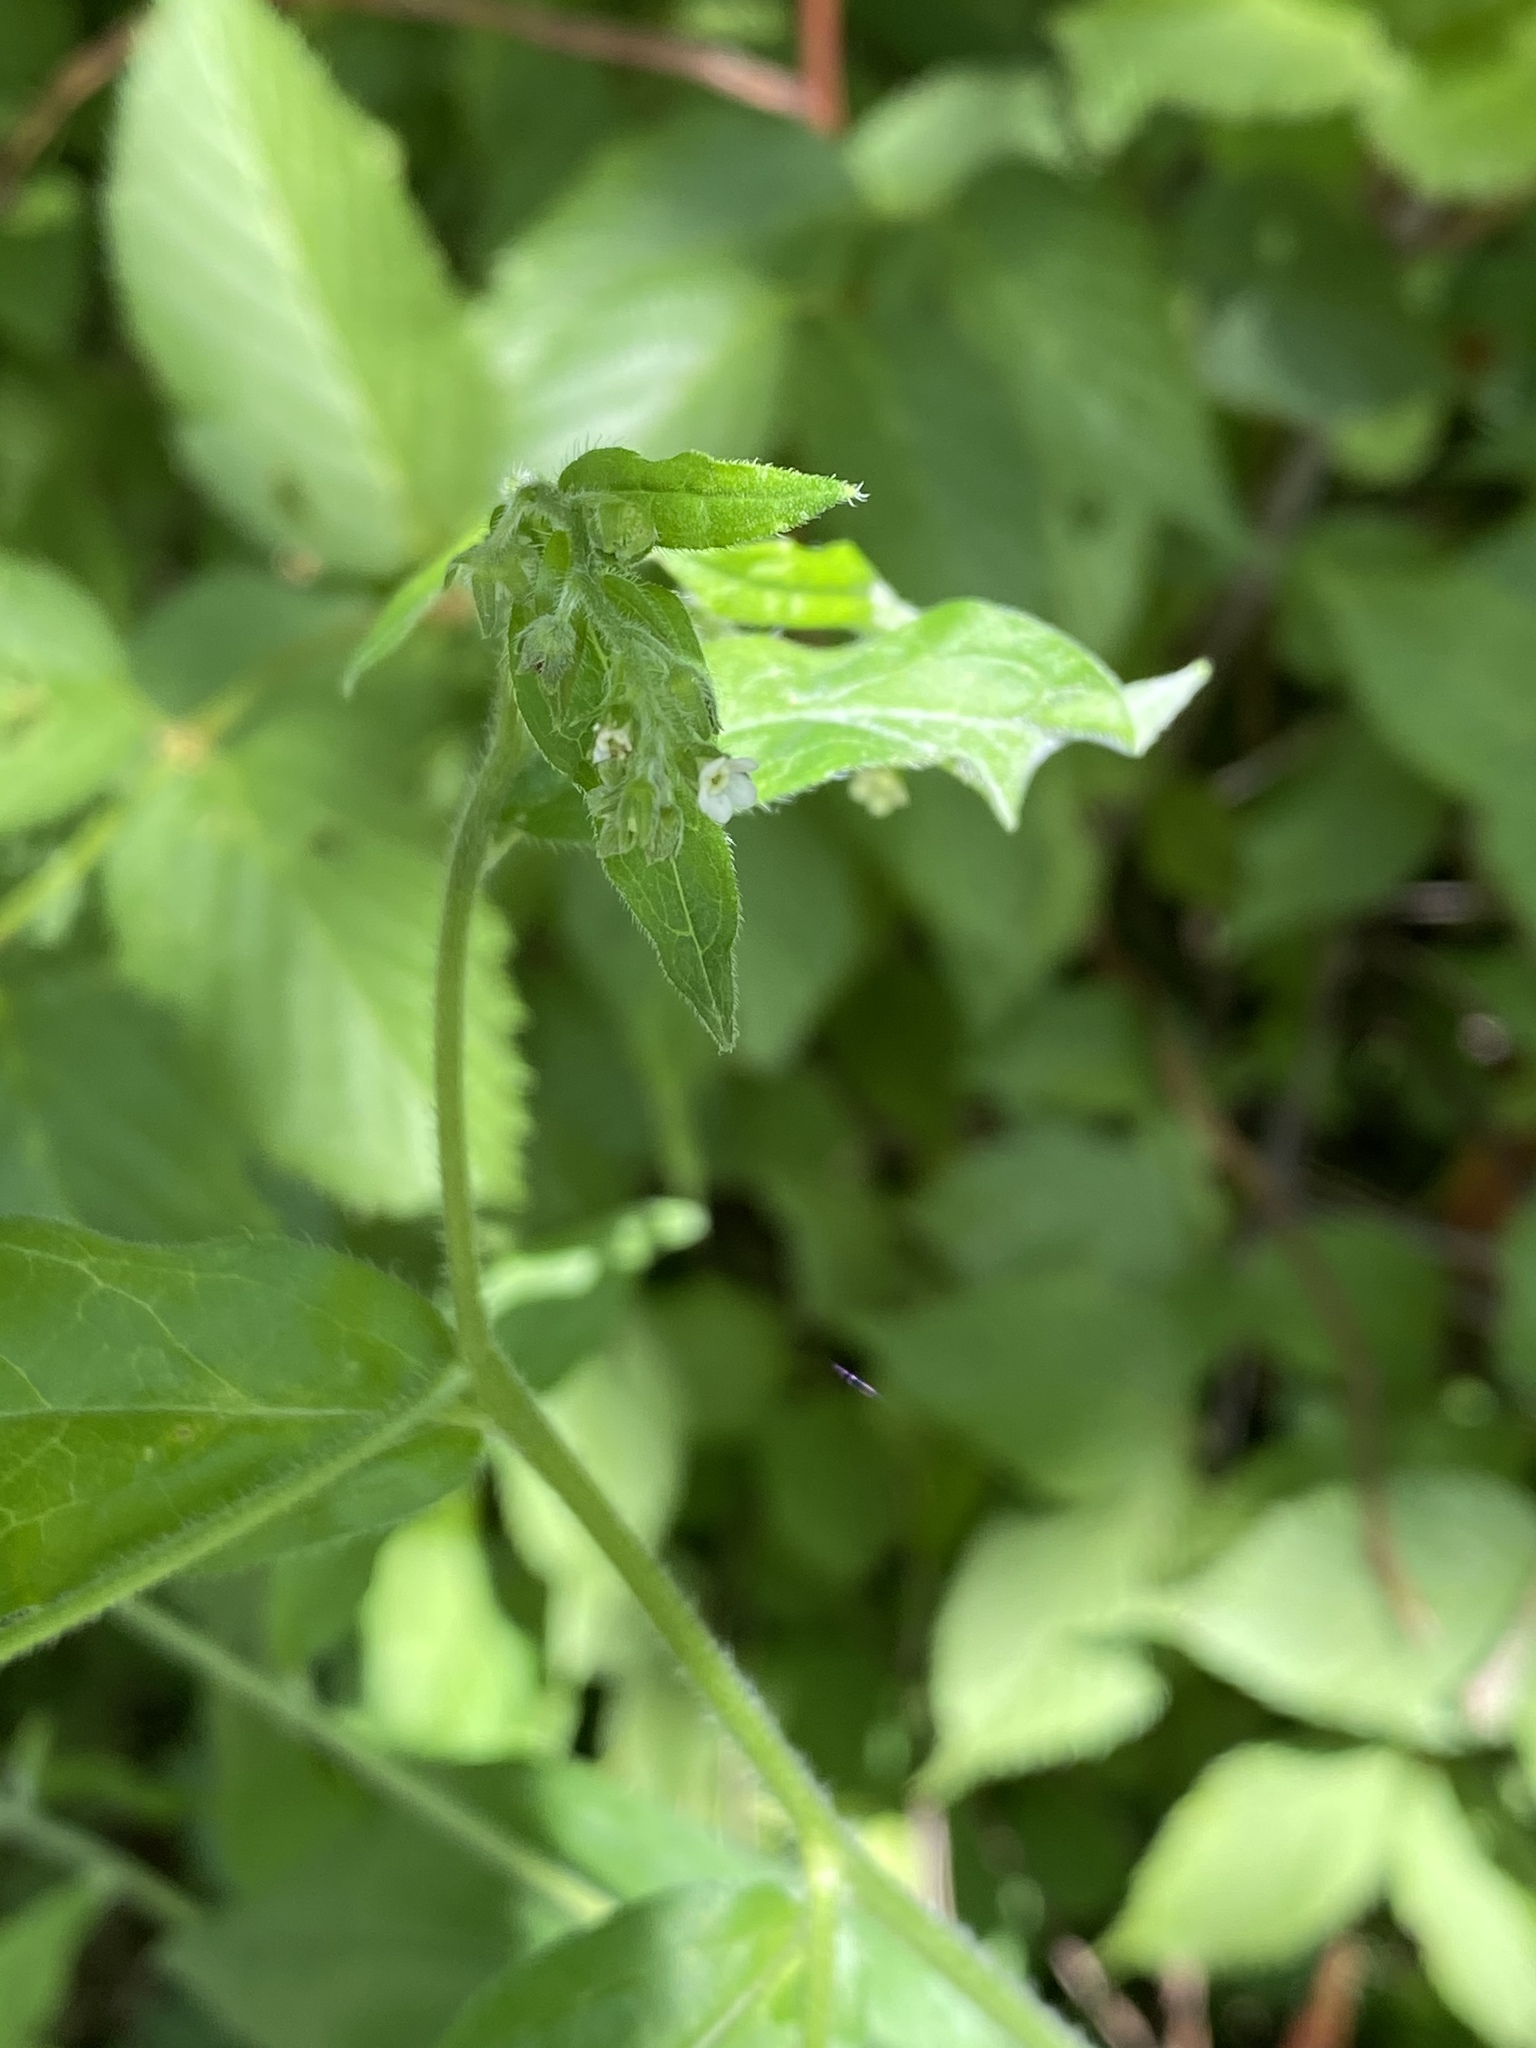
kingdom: Plantae
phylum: Tracheophyta
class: Magnoliopsida
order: Boraginales
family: Boraginaceae
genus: Hackelia
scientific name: Hackelia virginiana
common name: Beggar's-lice
